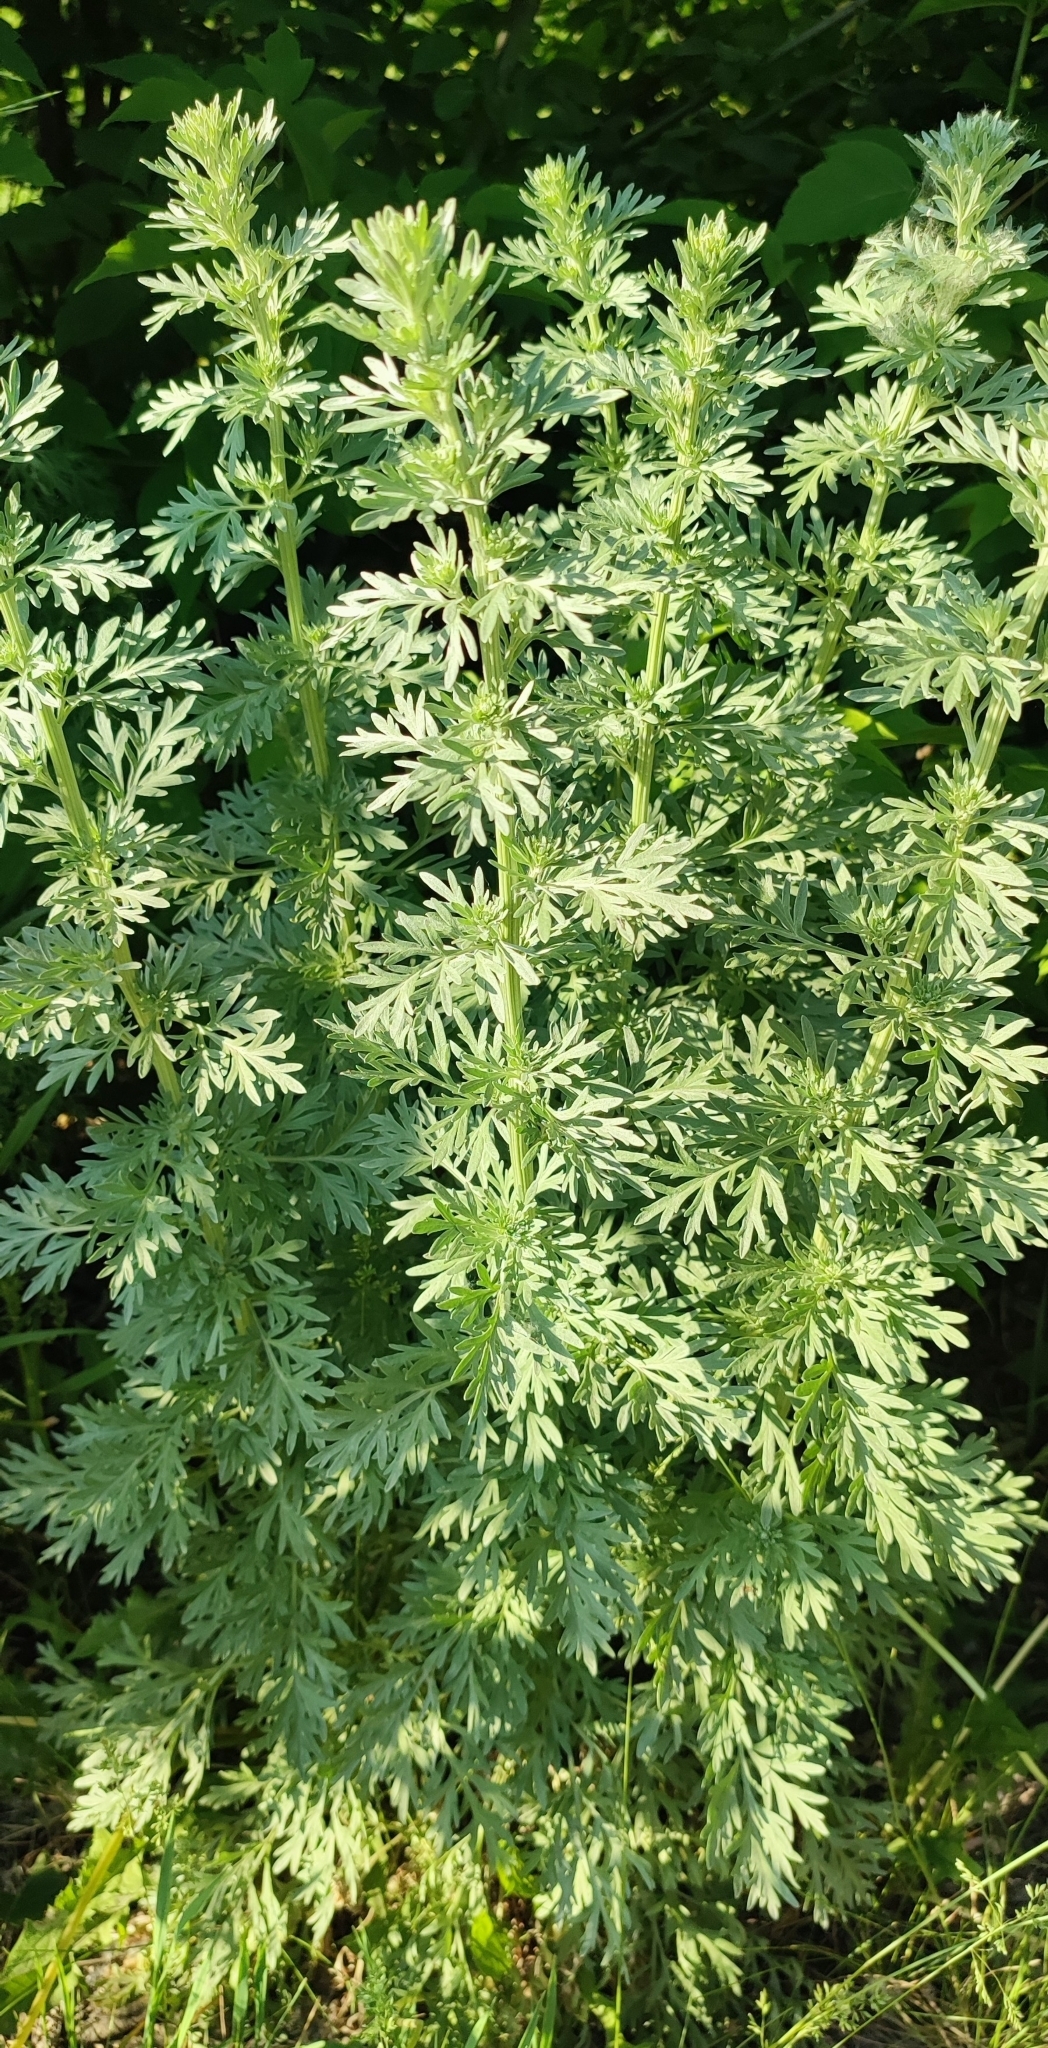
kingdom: Plantae
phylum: Tracheophyta
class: Magnoliopsida
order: Asterales
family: Asteraceae
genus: Artemisia
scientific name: Artemisia absinthium
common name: Wormwood
